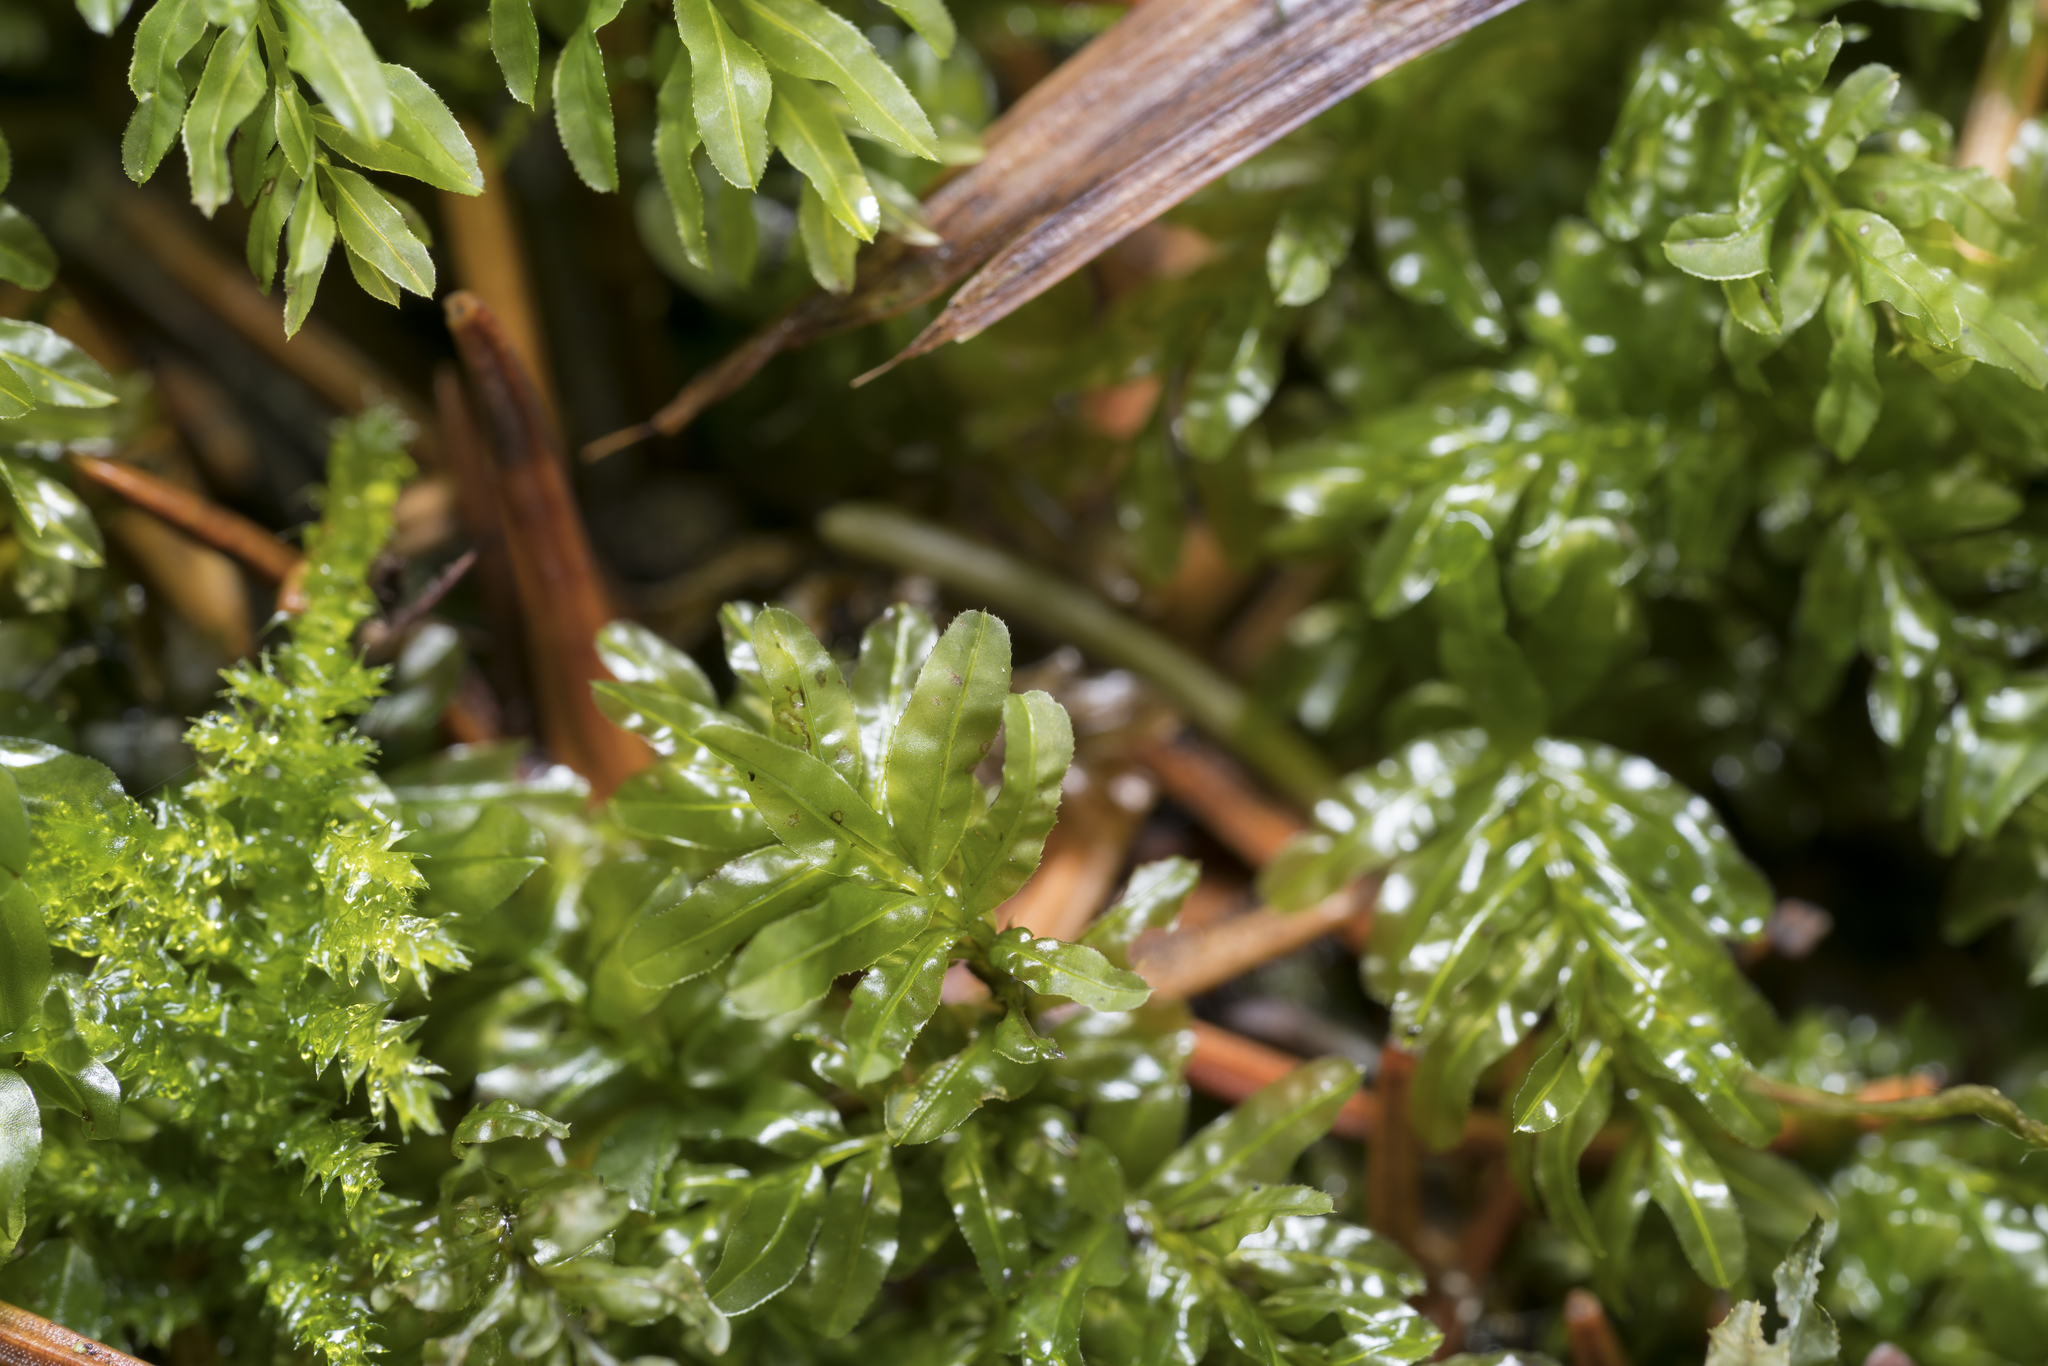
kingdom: Plantae
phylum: Bryophyta
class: Bryopsida
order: Bryales
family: Mniaceae
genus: Plagiomnium
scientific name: Plagiomnium undulatum
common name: Hart's-tongue thyme-moss
